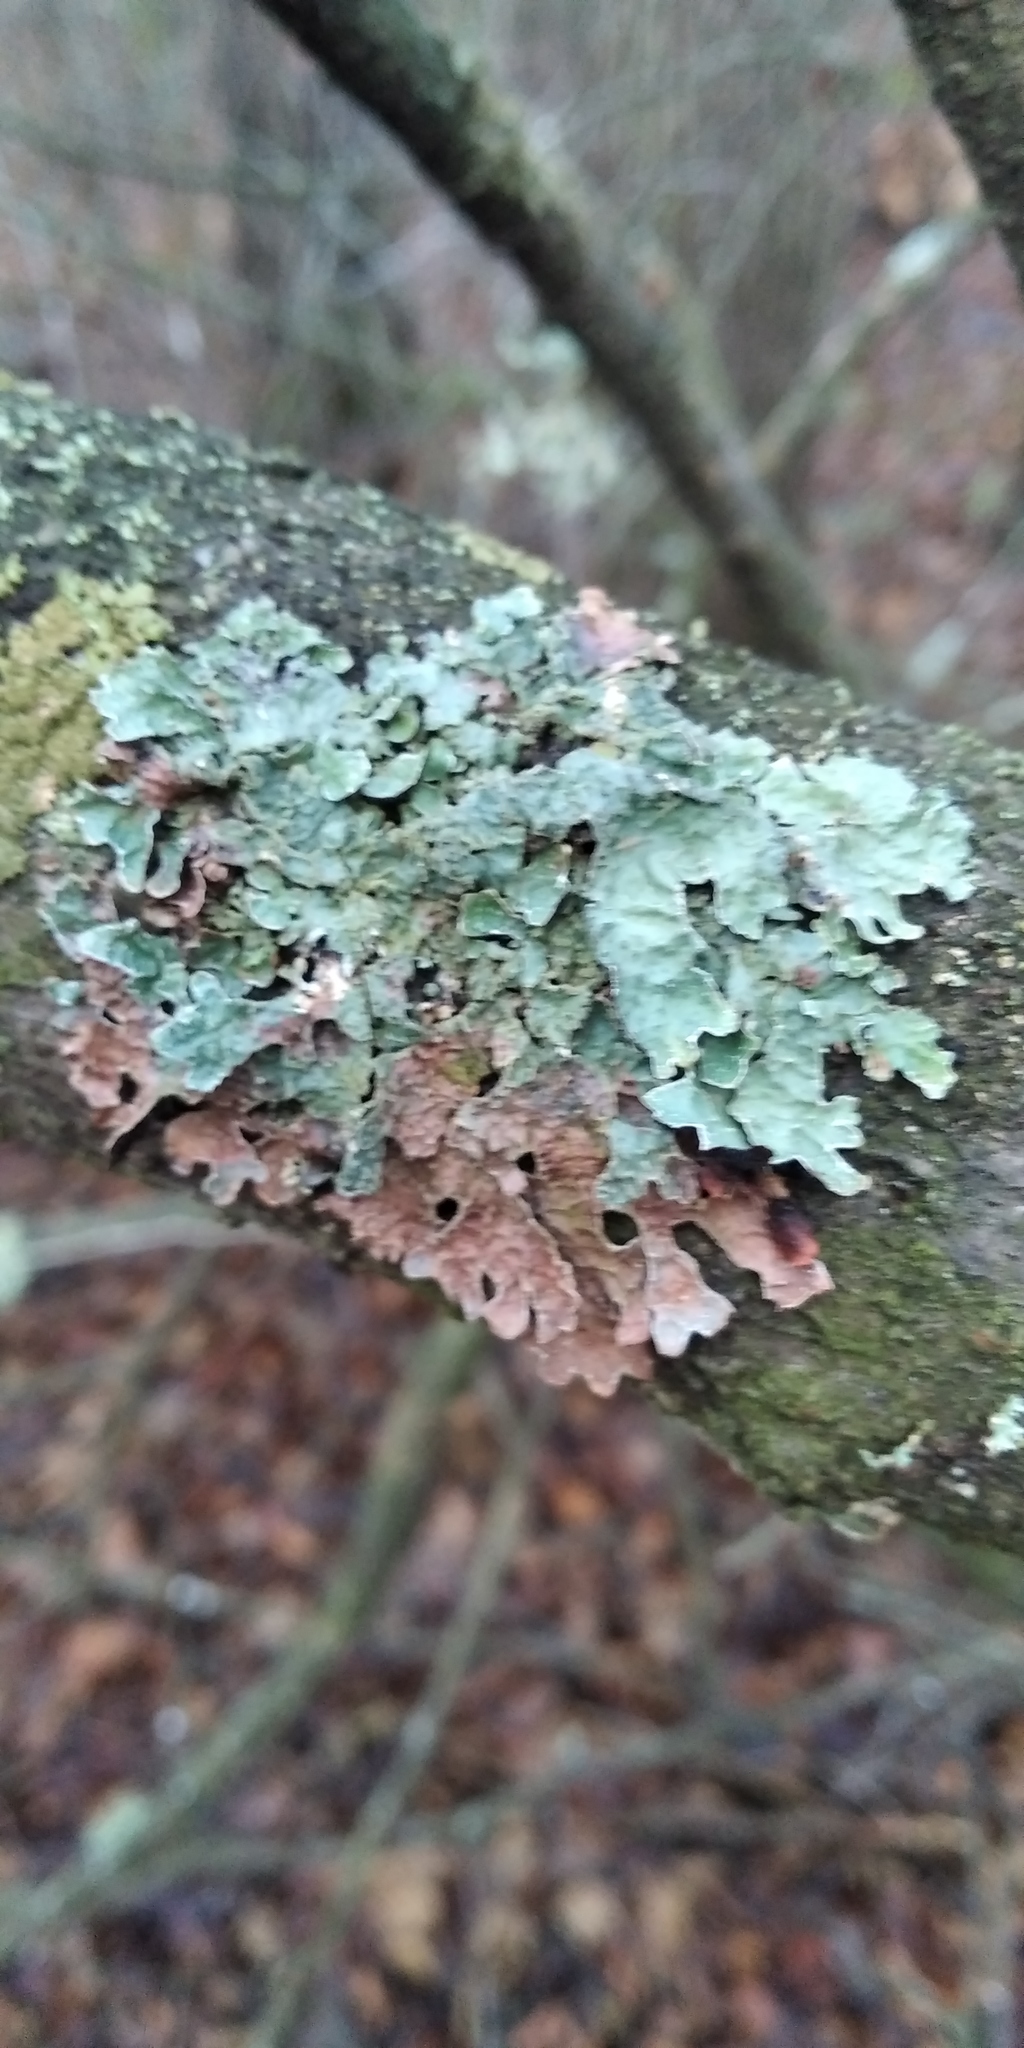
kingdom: Fungi
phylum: Ascomycota
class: Lecanoromycetes
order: Lecanorales
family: Parmeliaceae
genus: Parmelia
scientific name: Parmelia sulcata
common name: Netted shield lichen
